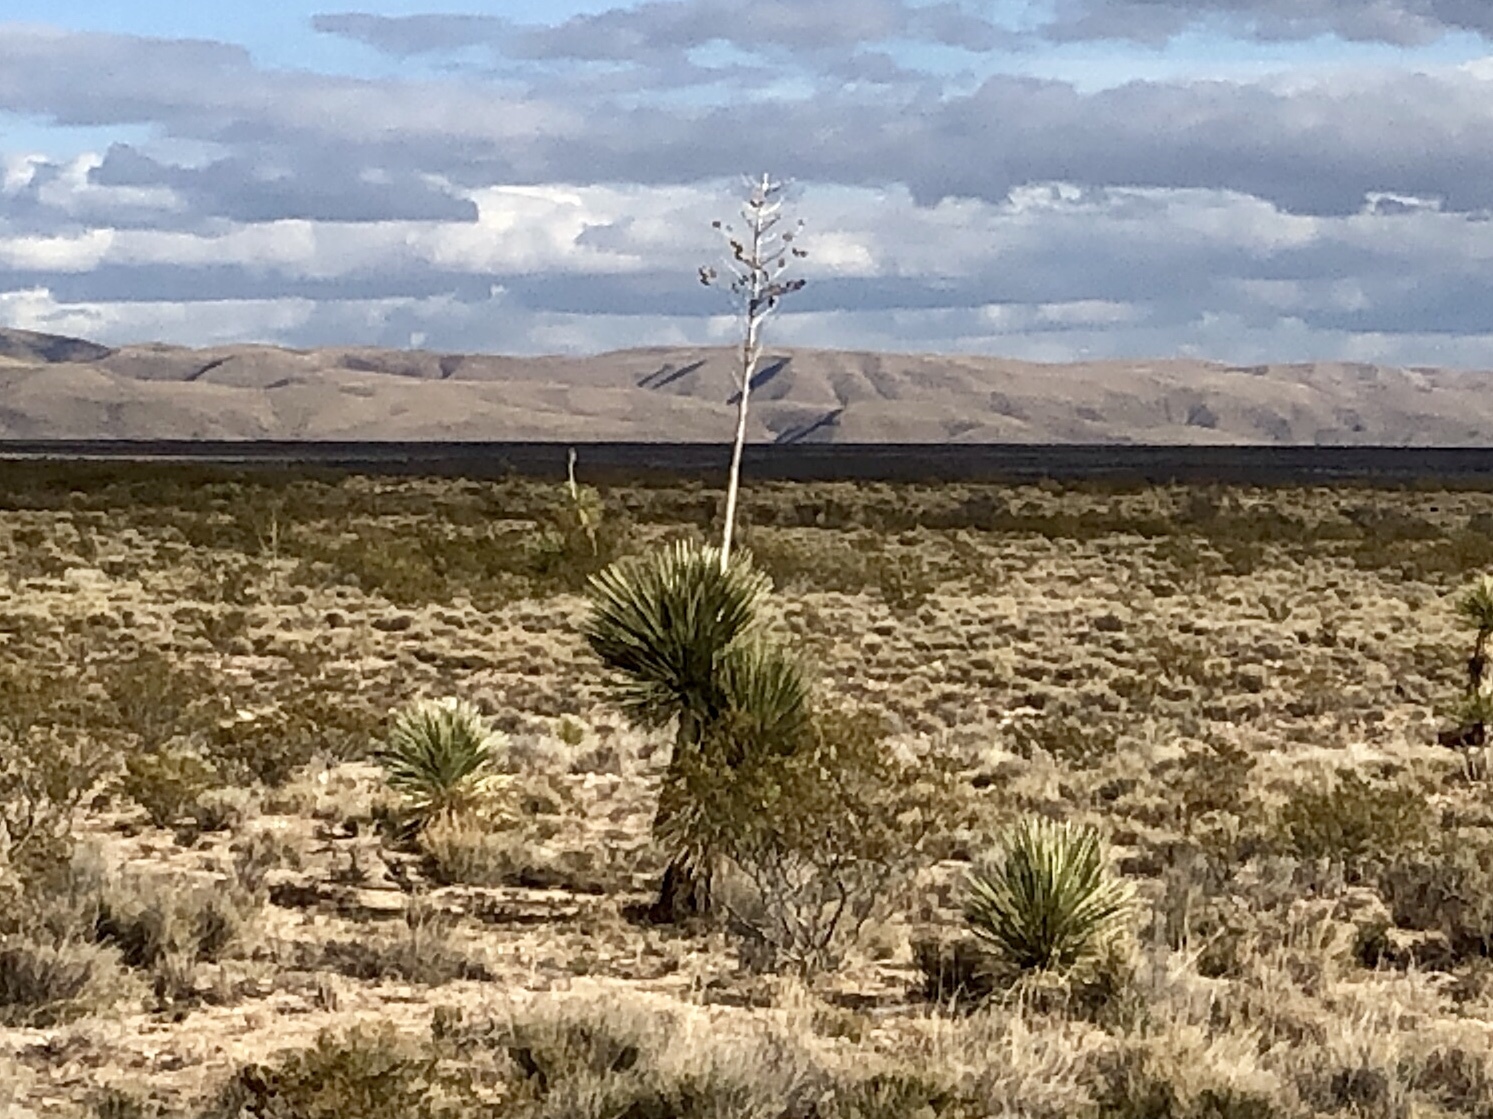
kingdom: Plantae
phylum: Tracheophyta
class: Liliopsida
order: Asparagales
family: Asparagaceae
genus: Yucca
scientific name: Yucca elata
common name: Palmella
